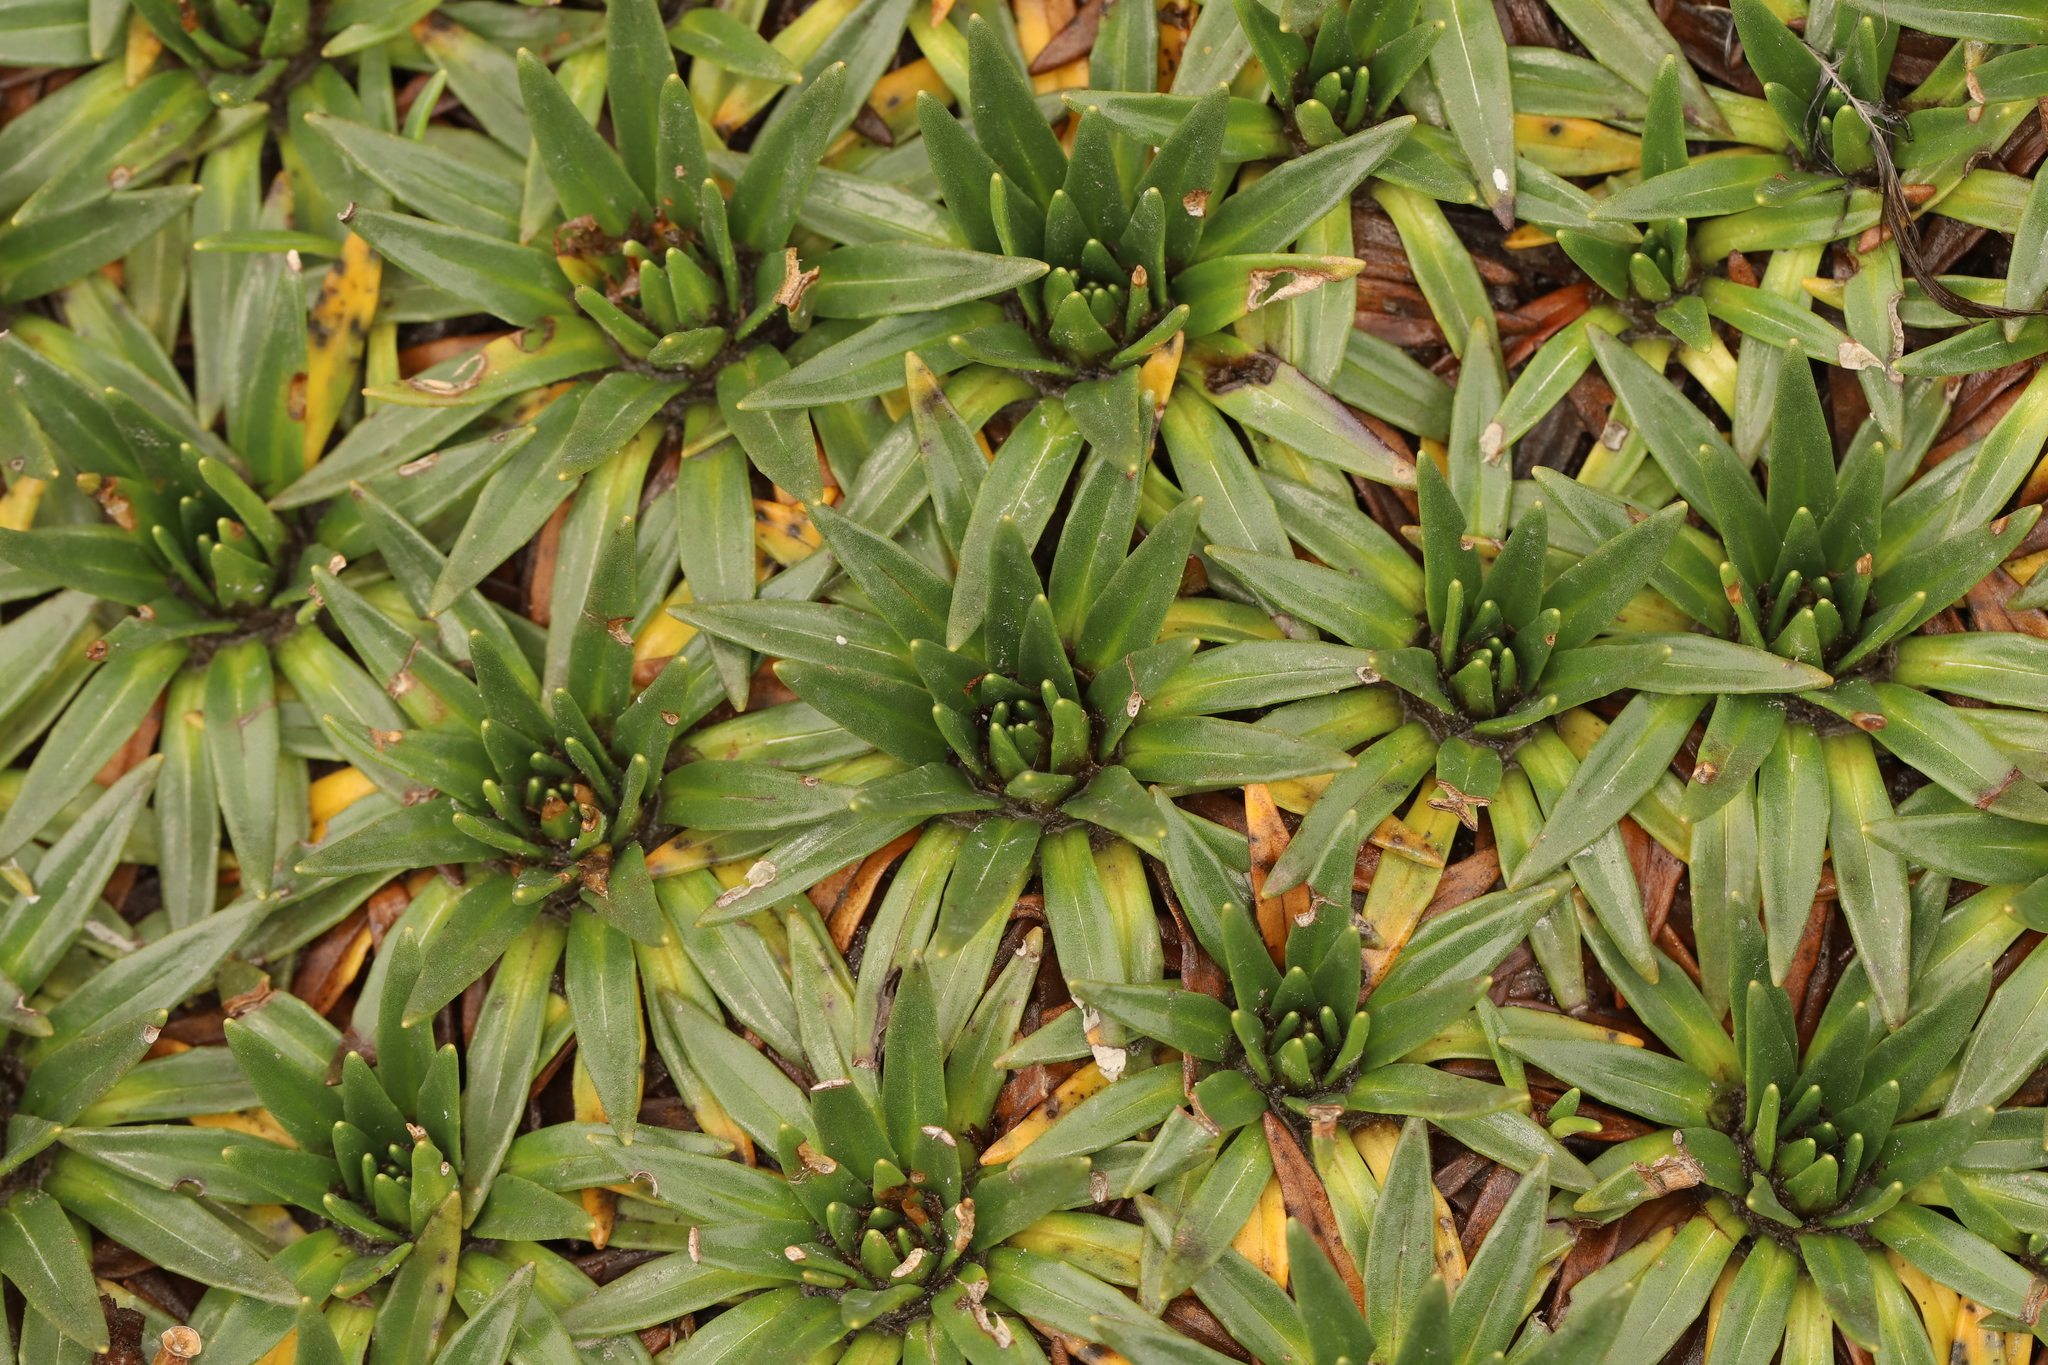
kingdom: Plantae
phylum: Tracheophyta
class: Magnoliopsida
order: Lamiales
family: Plantaginaceae
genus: Plantago
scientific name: Plantago rigida
